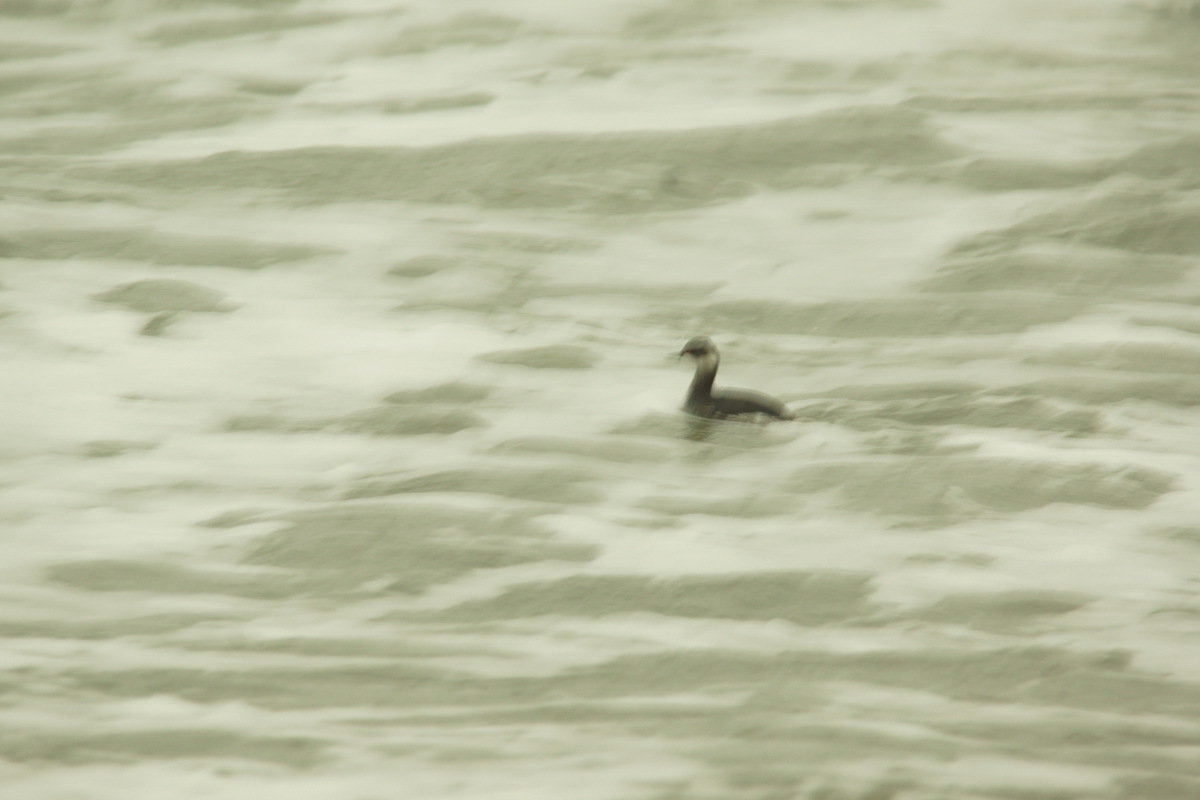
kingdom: Animalia
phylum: Chordata
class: Aves
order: Podicipediformes
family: Podicipedidae
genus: Podiceps
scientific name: Podiceps nigricollis
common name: Black-necked grebe
